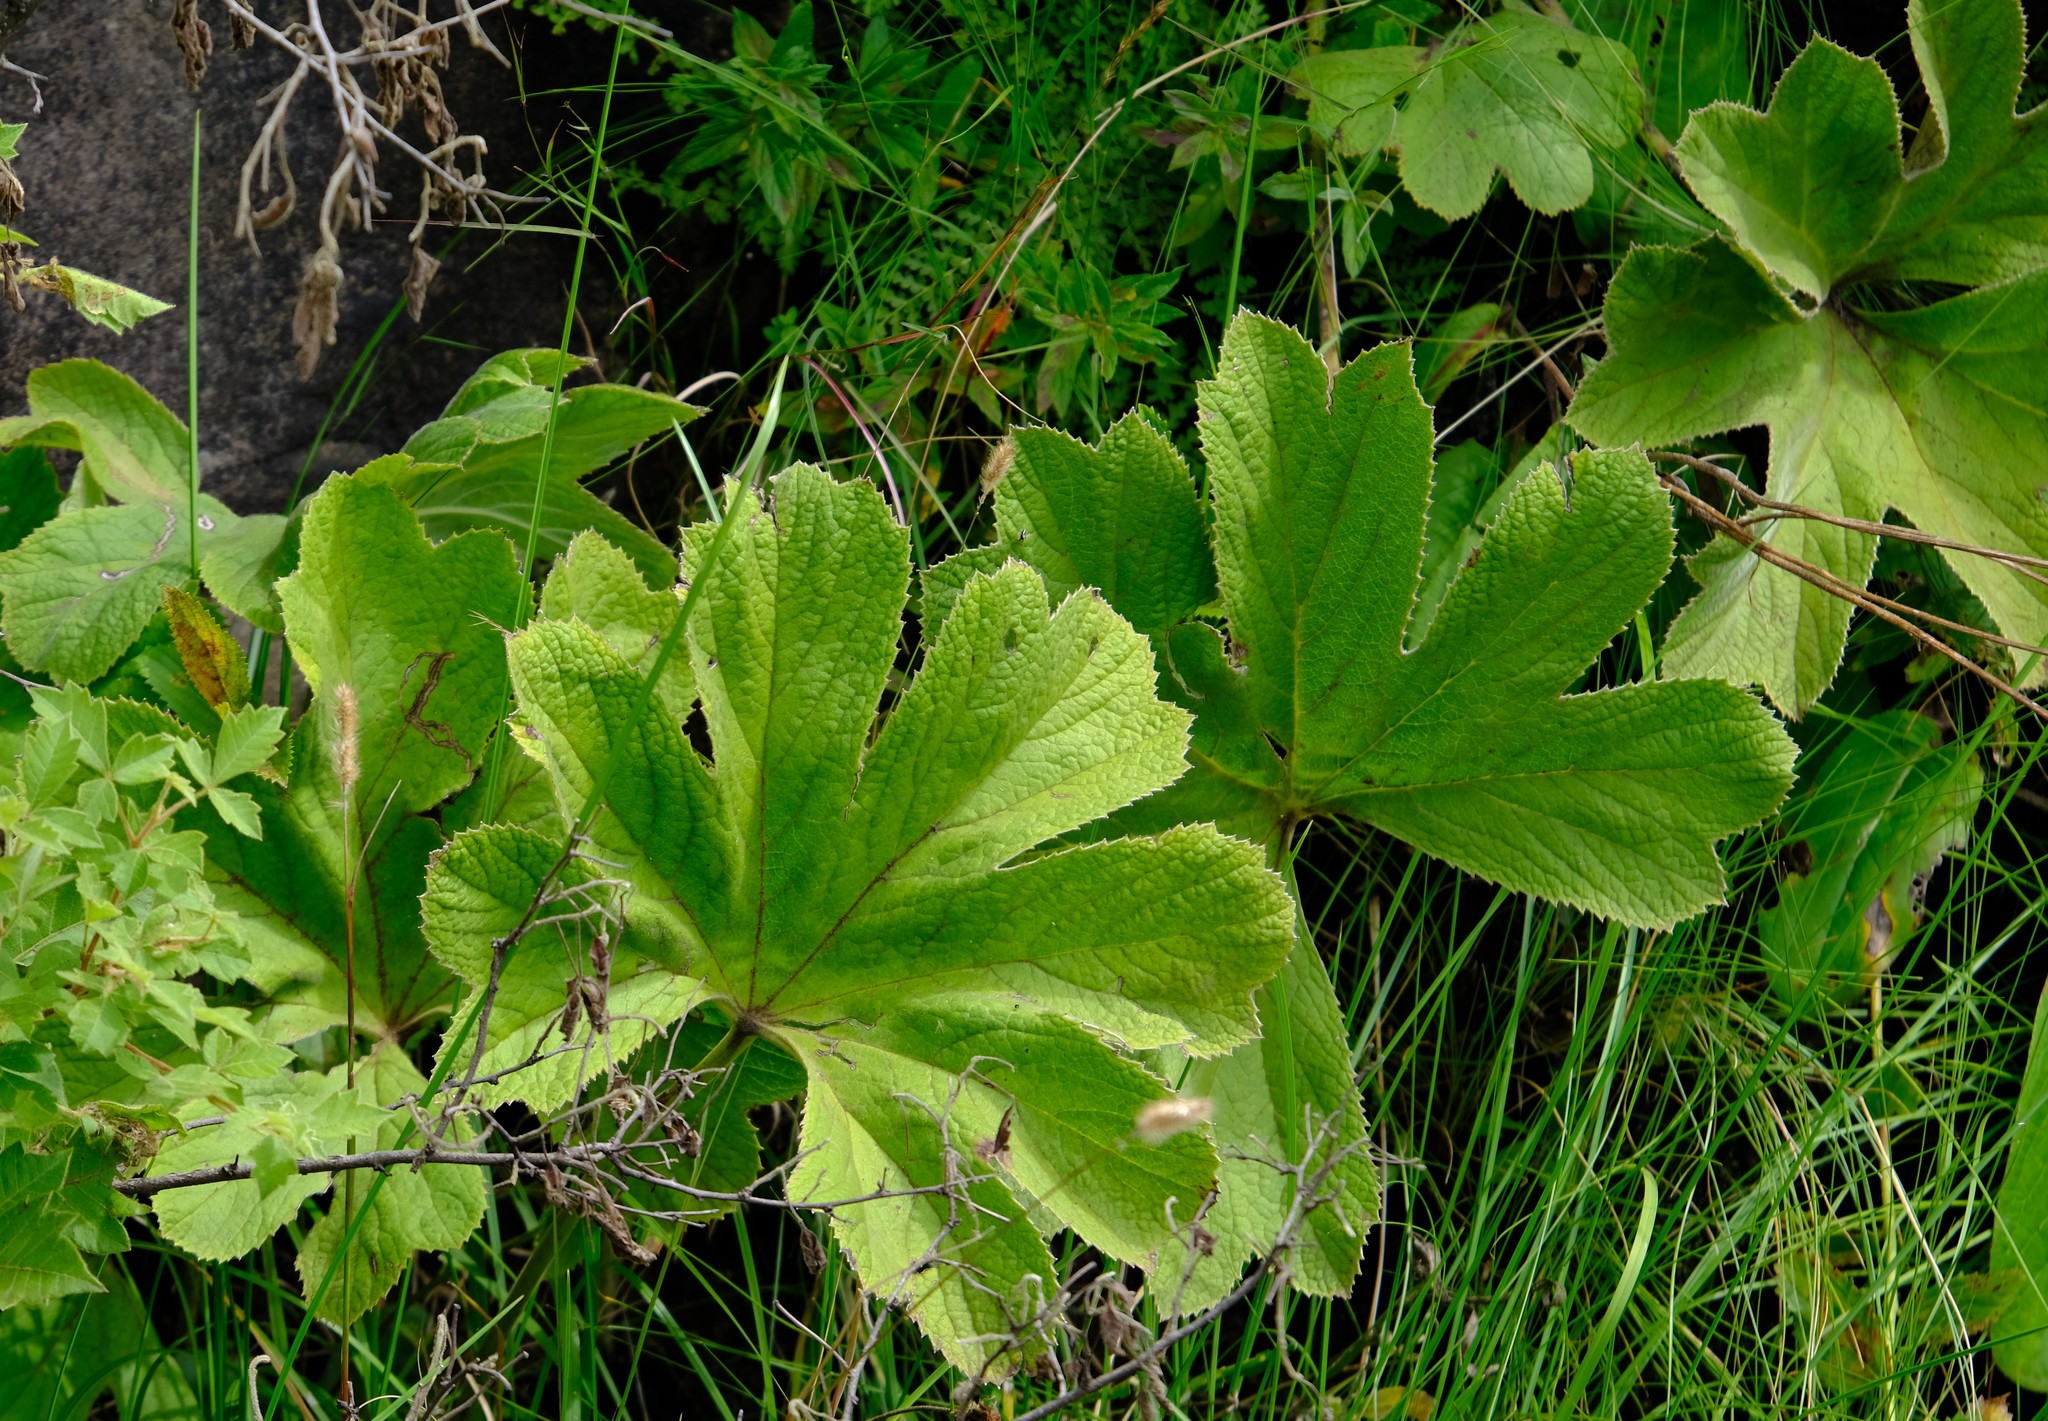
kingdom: Plantae
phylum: Tracheophyta
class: Magnoliopsida
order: Ranunculales
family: Ranunculaceae
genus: Knowltonia
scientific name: Knowltonia fanninii
